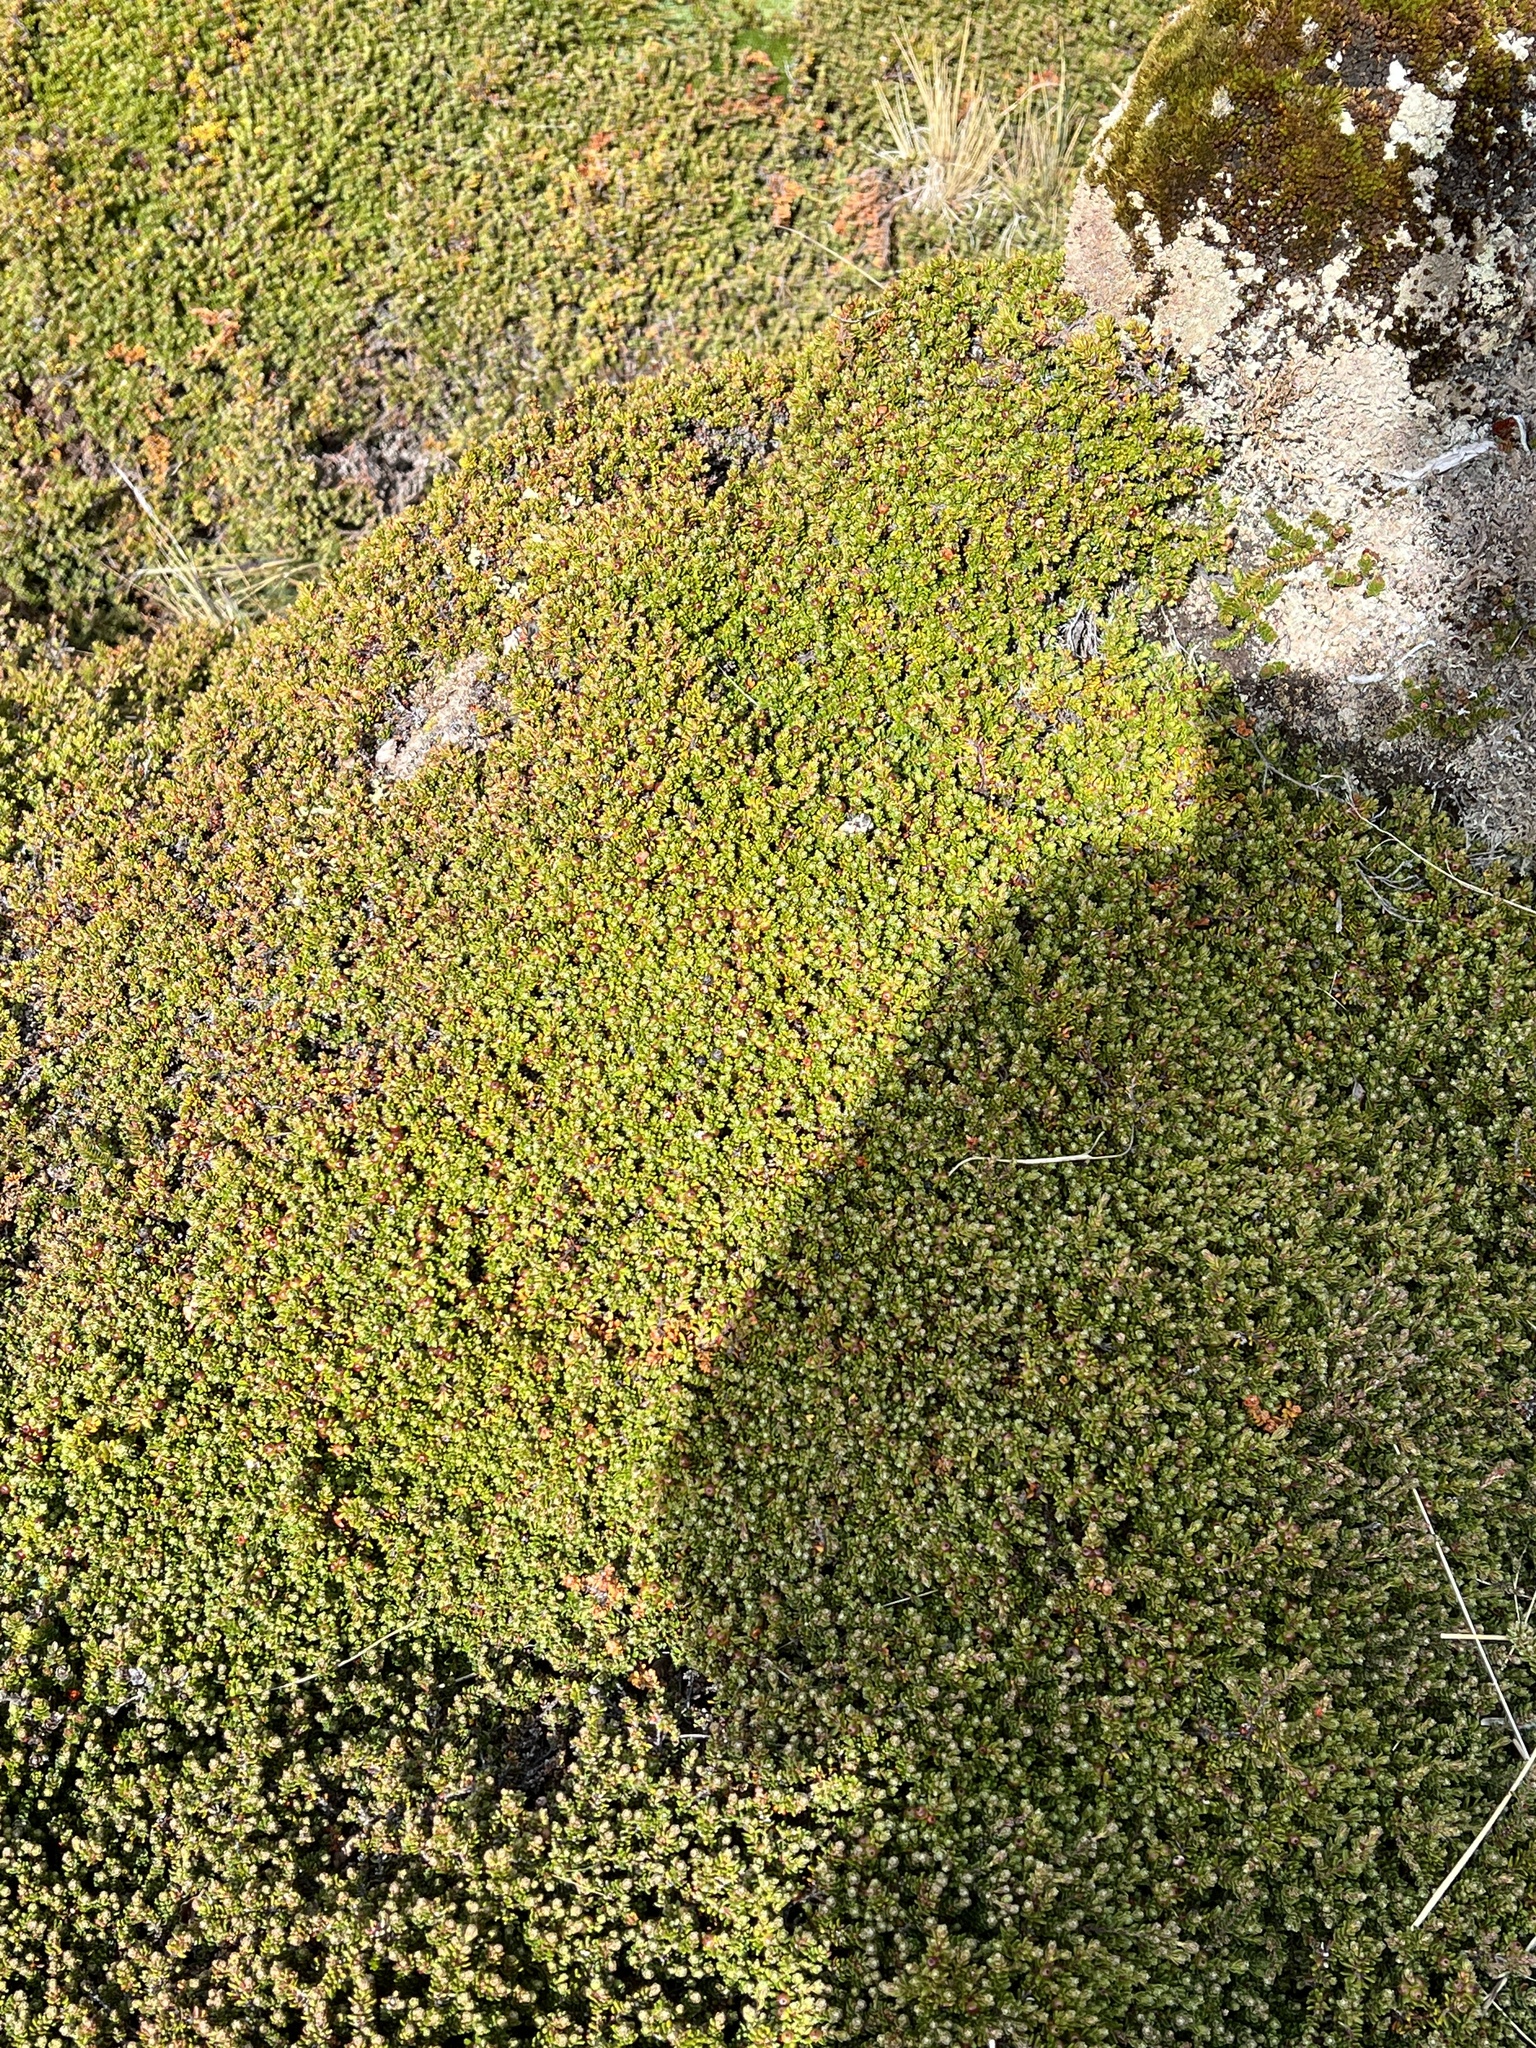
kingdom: Plantae
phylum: Tracheophyta
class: Magnoliopsida
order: Ericales
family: Ericaceae
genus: Empetrum
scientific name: Empetrum rubrum
